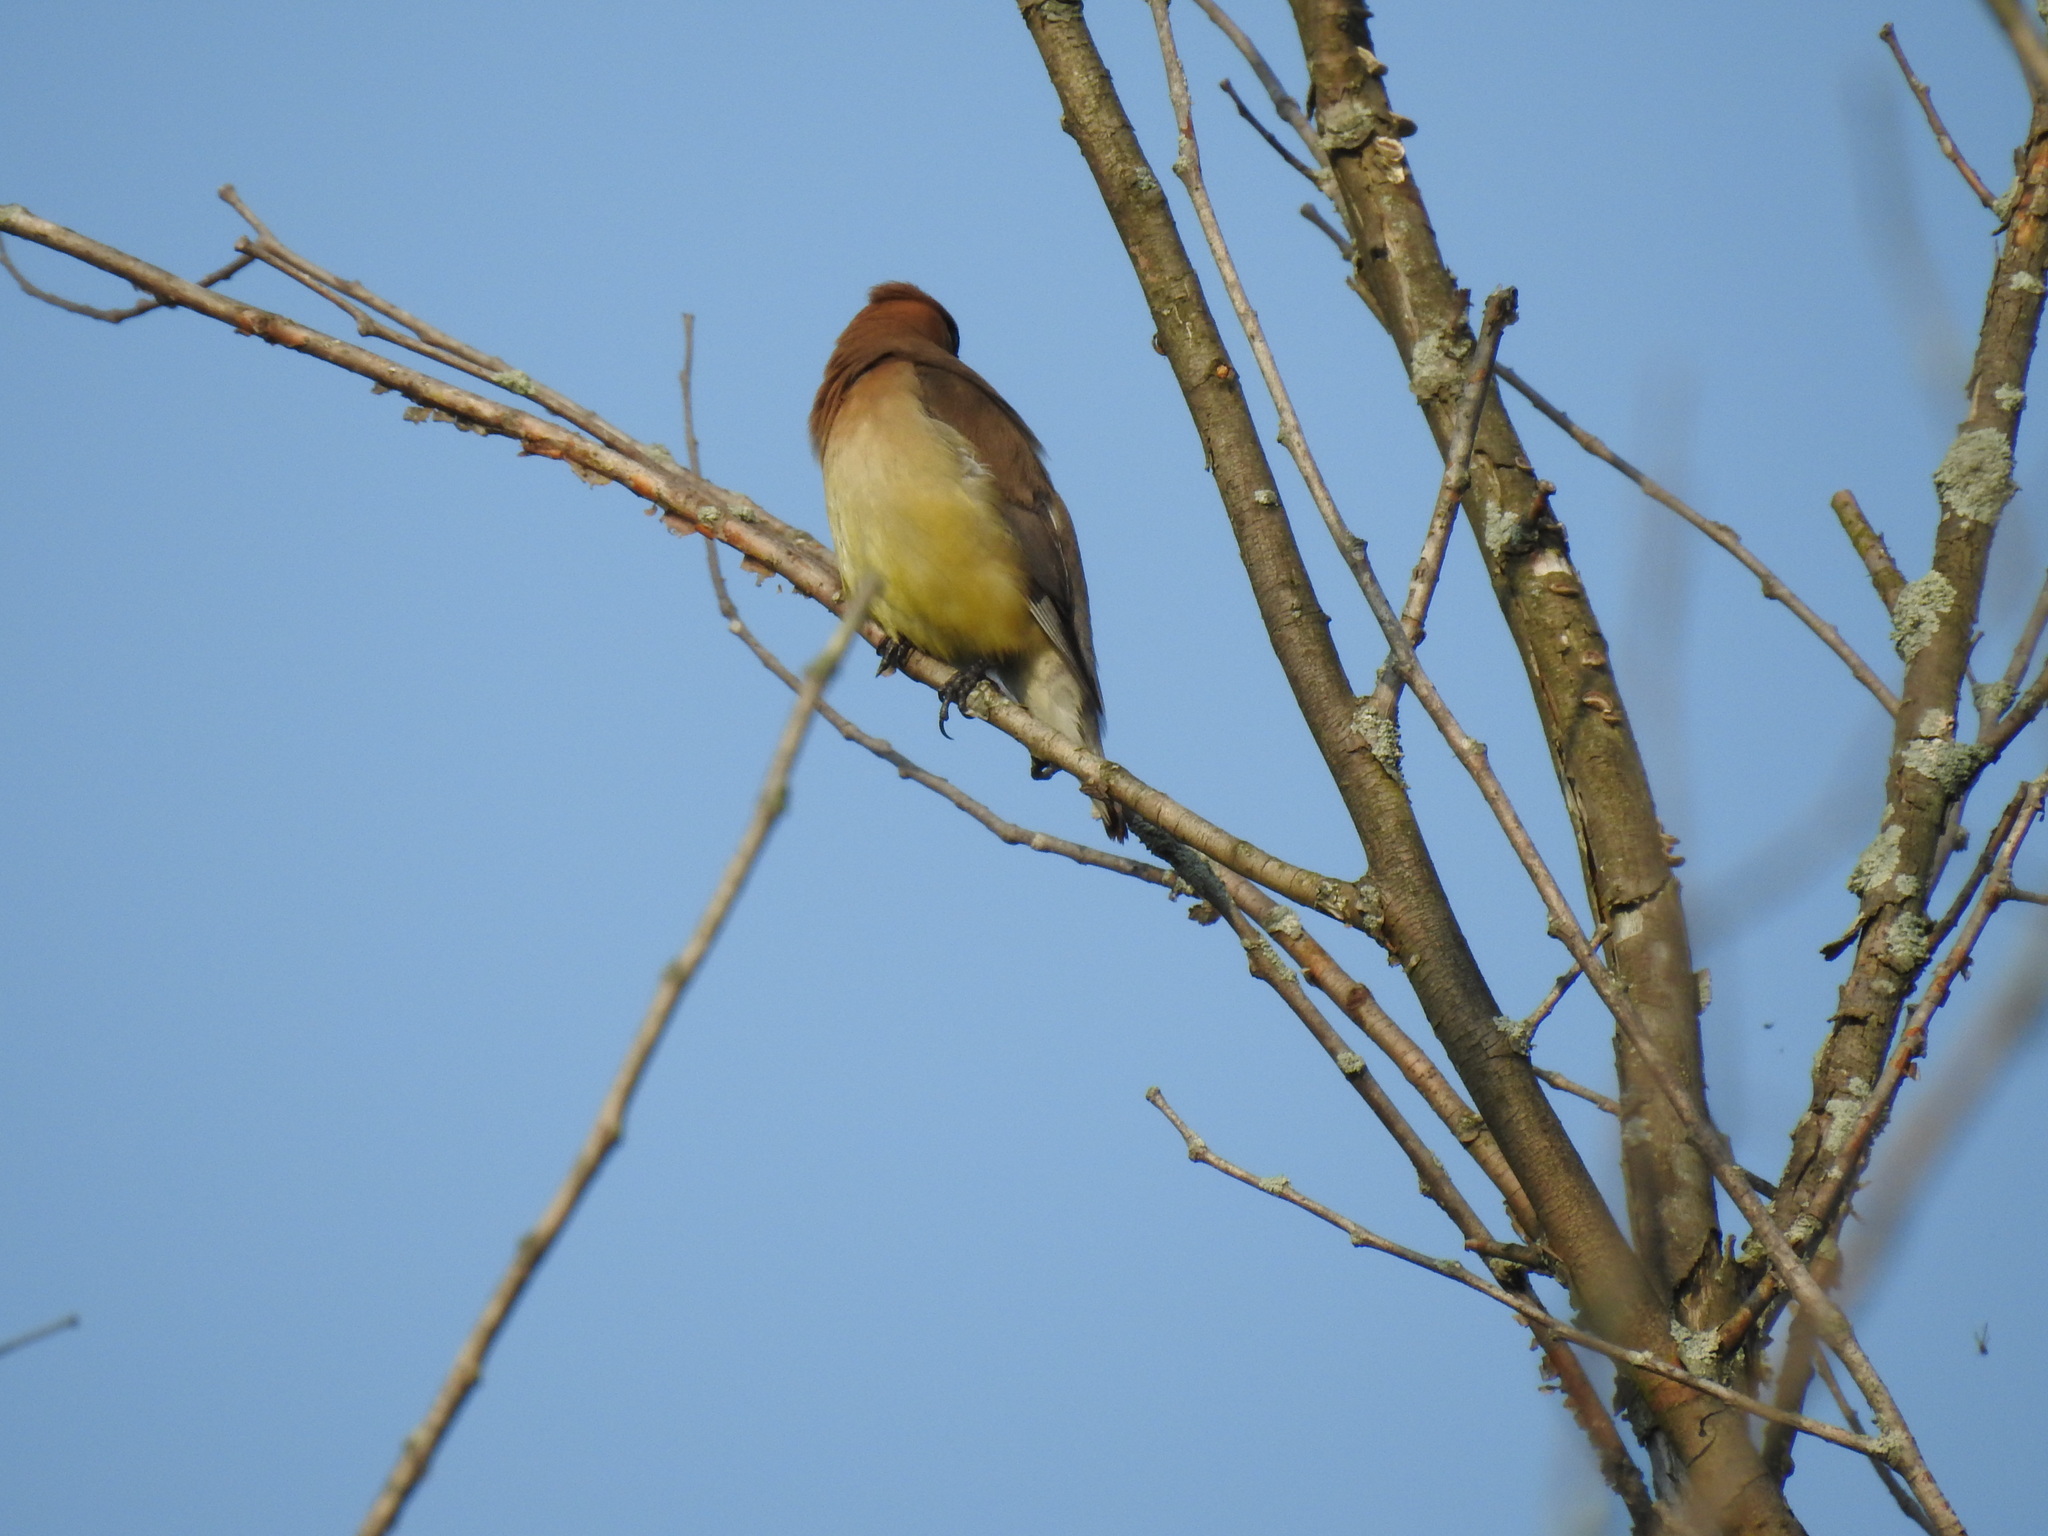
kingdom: Animalia
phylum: Chordata
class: Aves
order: Passeriformes
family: Bombycillidae
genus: Bombycilla
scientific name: Bombycilla cedrorum
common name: Cedar waxwing
